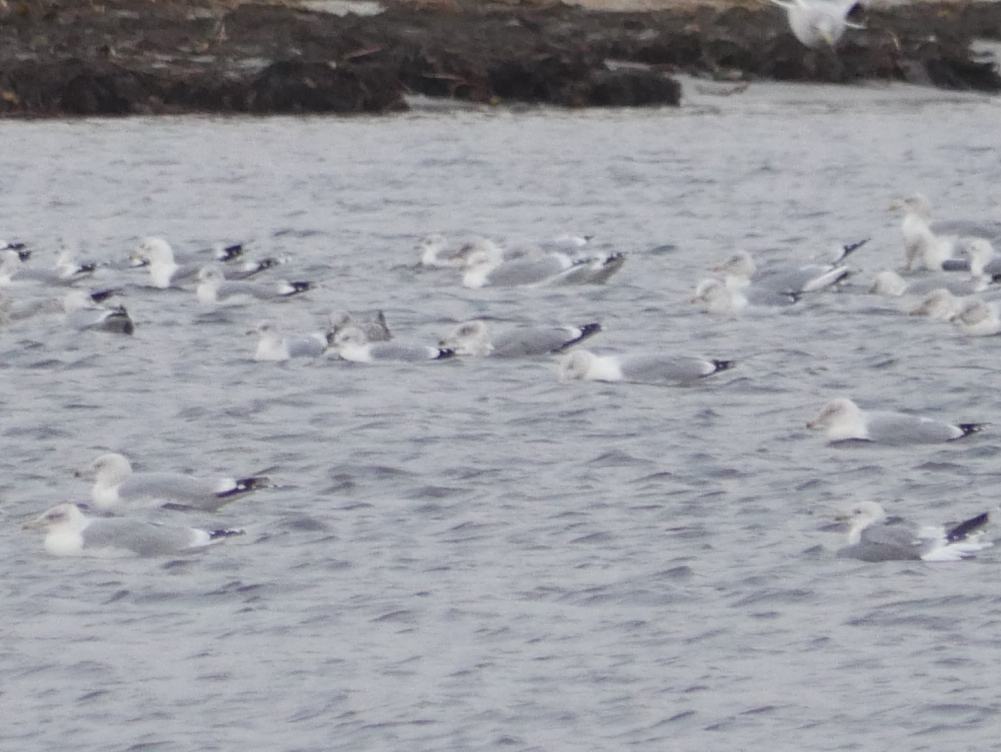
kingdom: Animalia
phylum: Chordata
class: Aves
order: Charadriiformes
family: Laridae
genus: Larus
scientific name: Larus argentatus
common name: Herring gull
